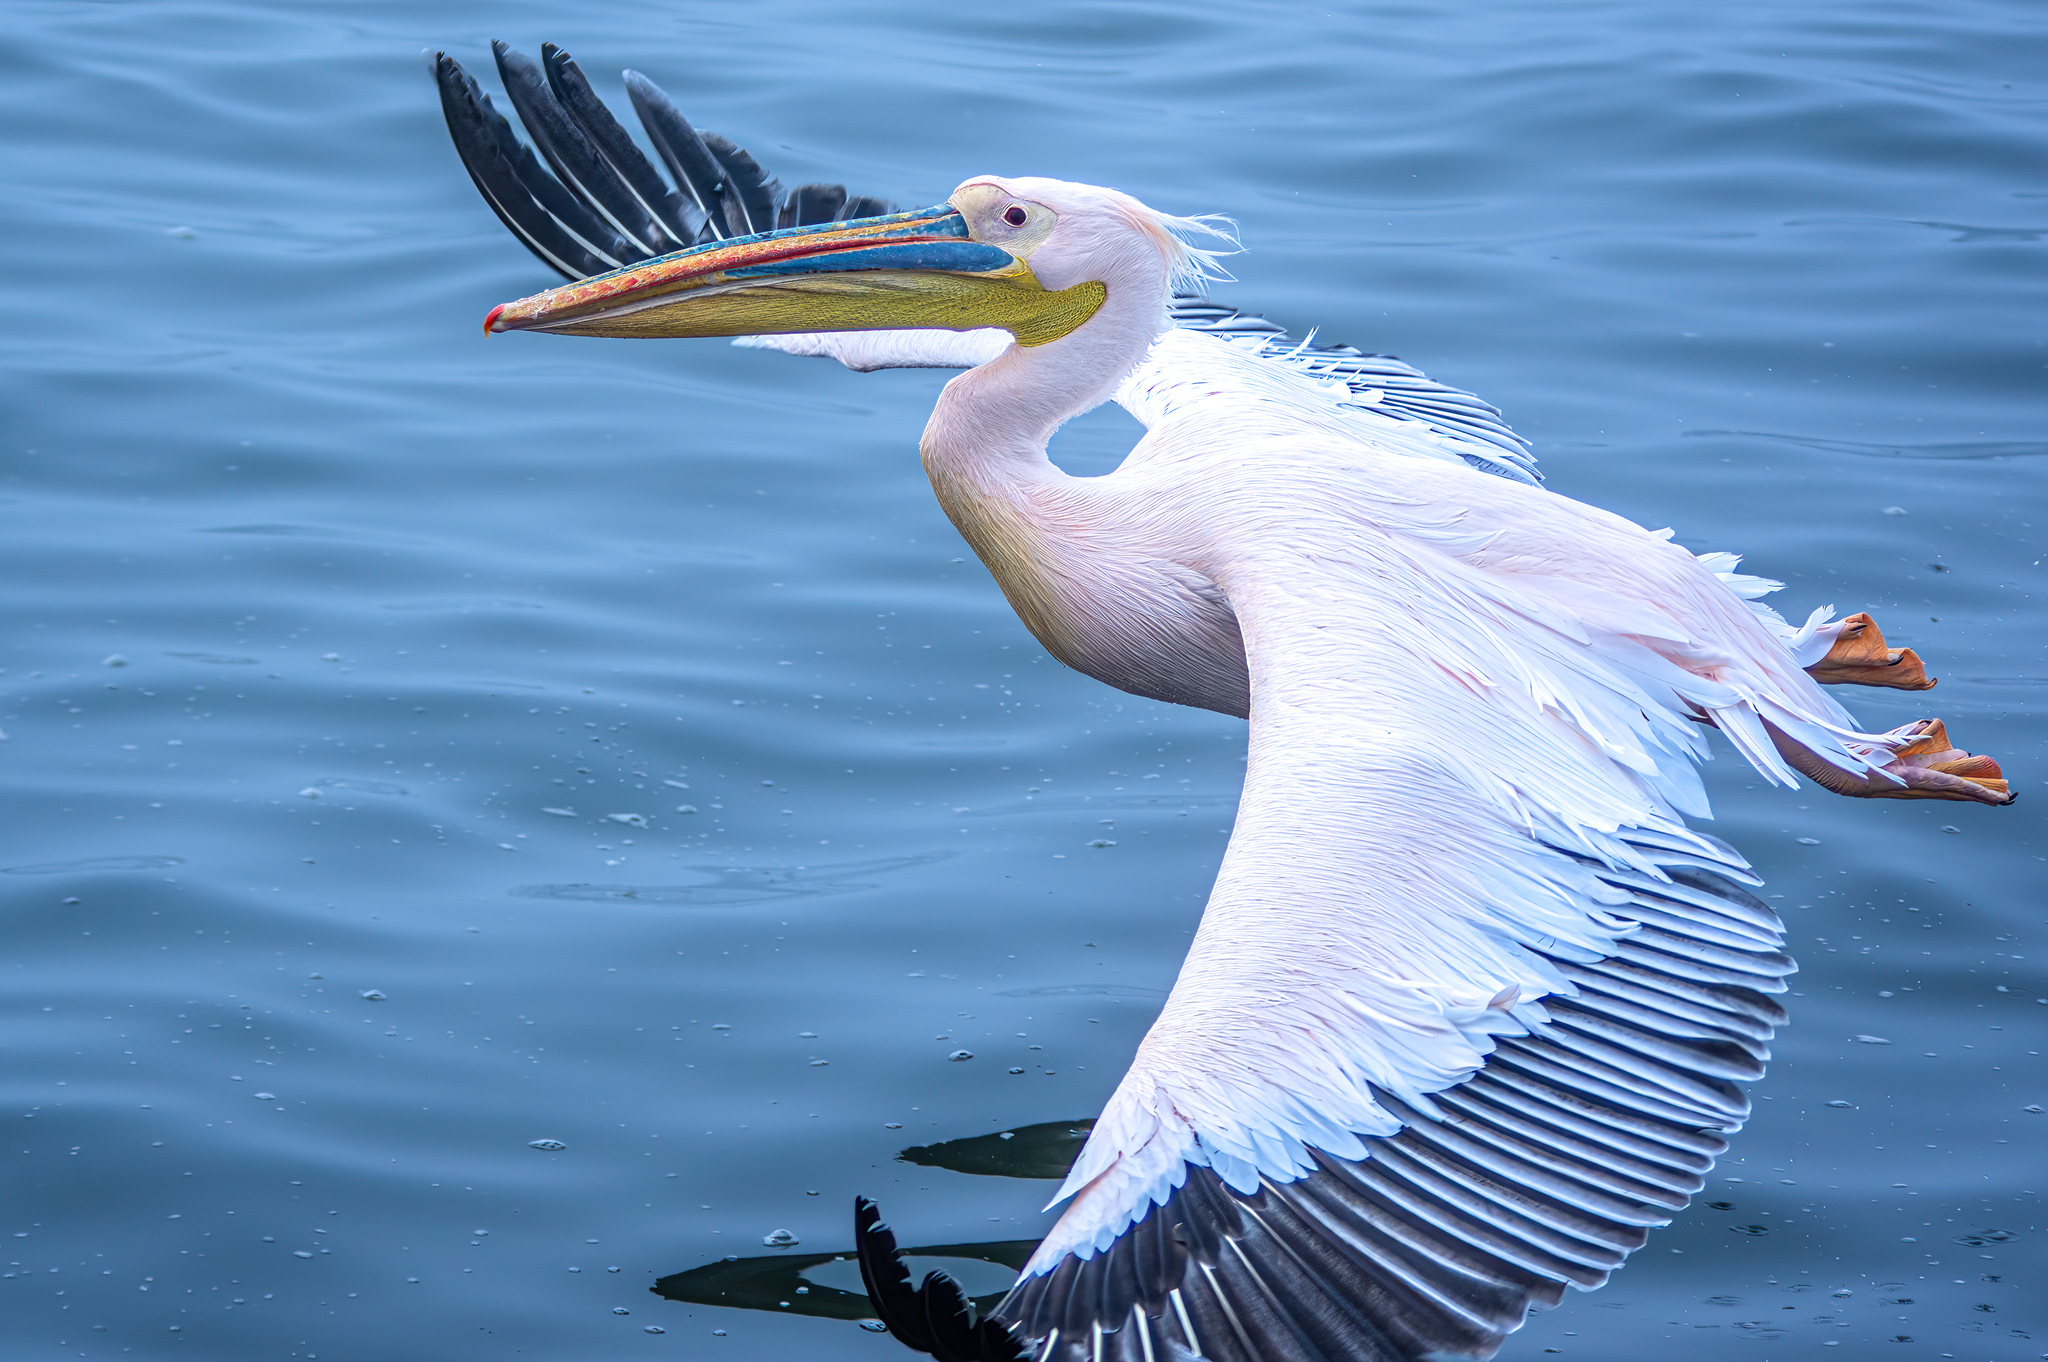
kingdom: Animalia
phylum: Chordata
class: Aves
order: Pelecaniformes
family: Pelecanidae
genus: Pelecanus
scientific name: Pelecanus onocrotalus
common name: Great white pelican
